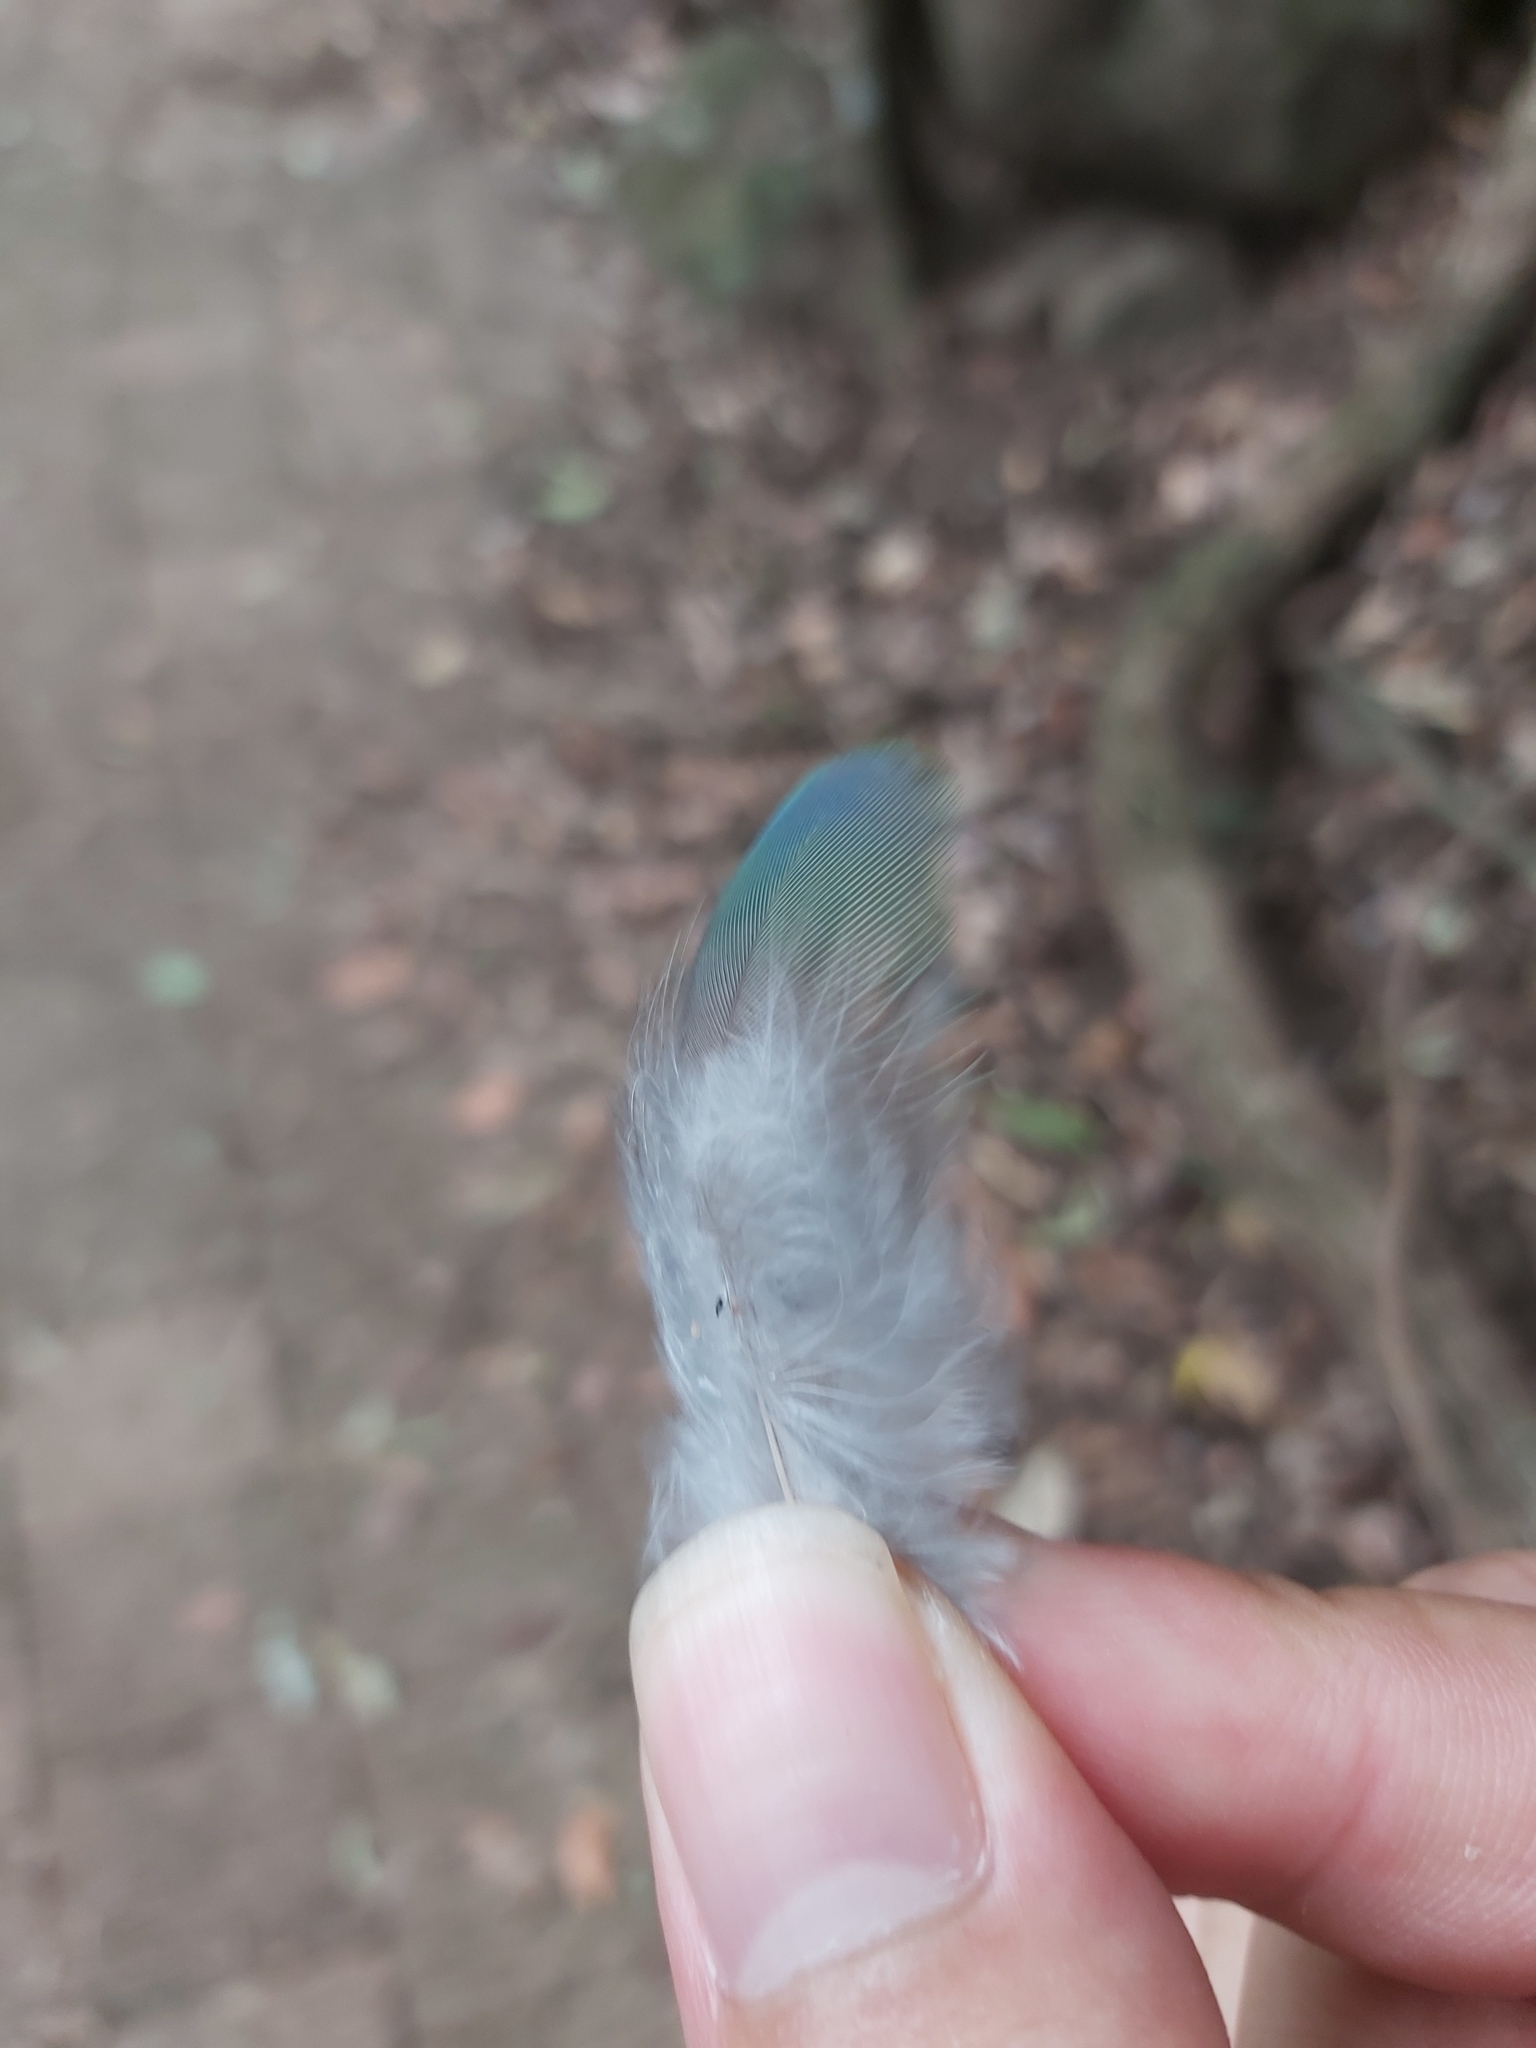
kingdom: Animalia
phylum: Chordata
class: Aves
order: Psittaciformes
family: Psittacidae
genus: Alisterus
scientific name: Alisterus scapularis
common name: Australian king parrot
